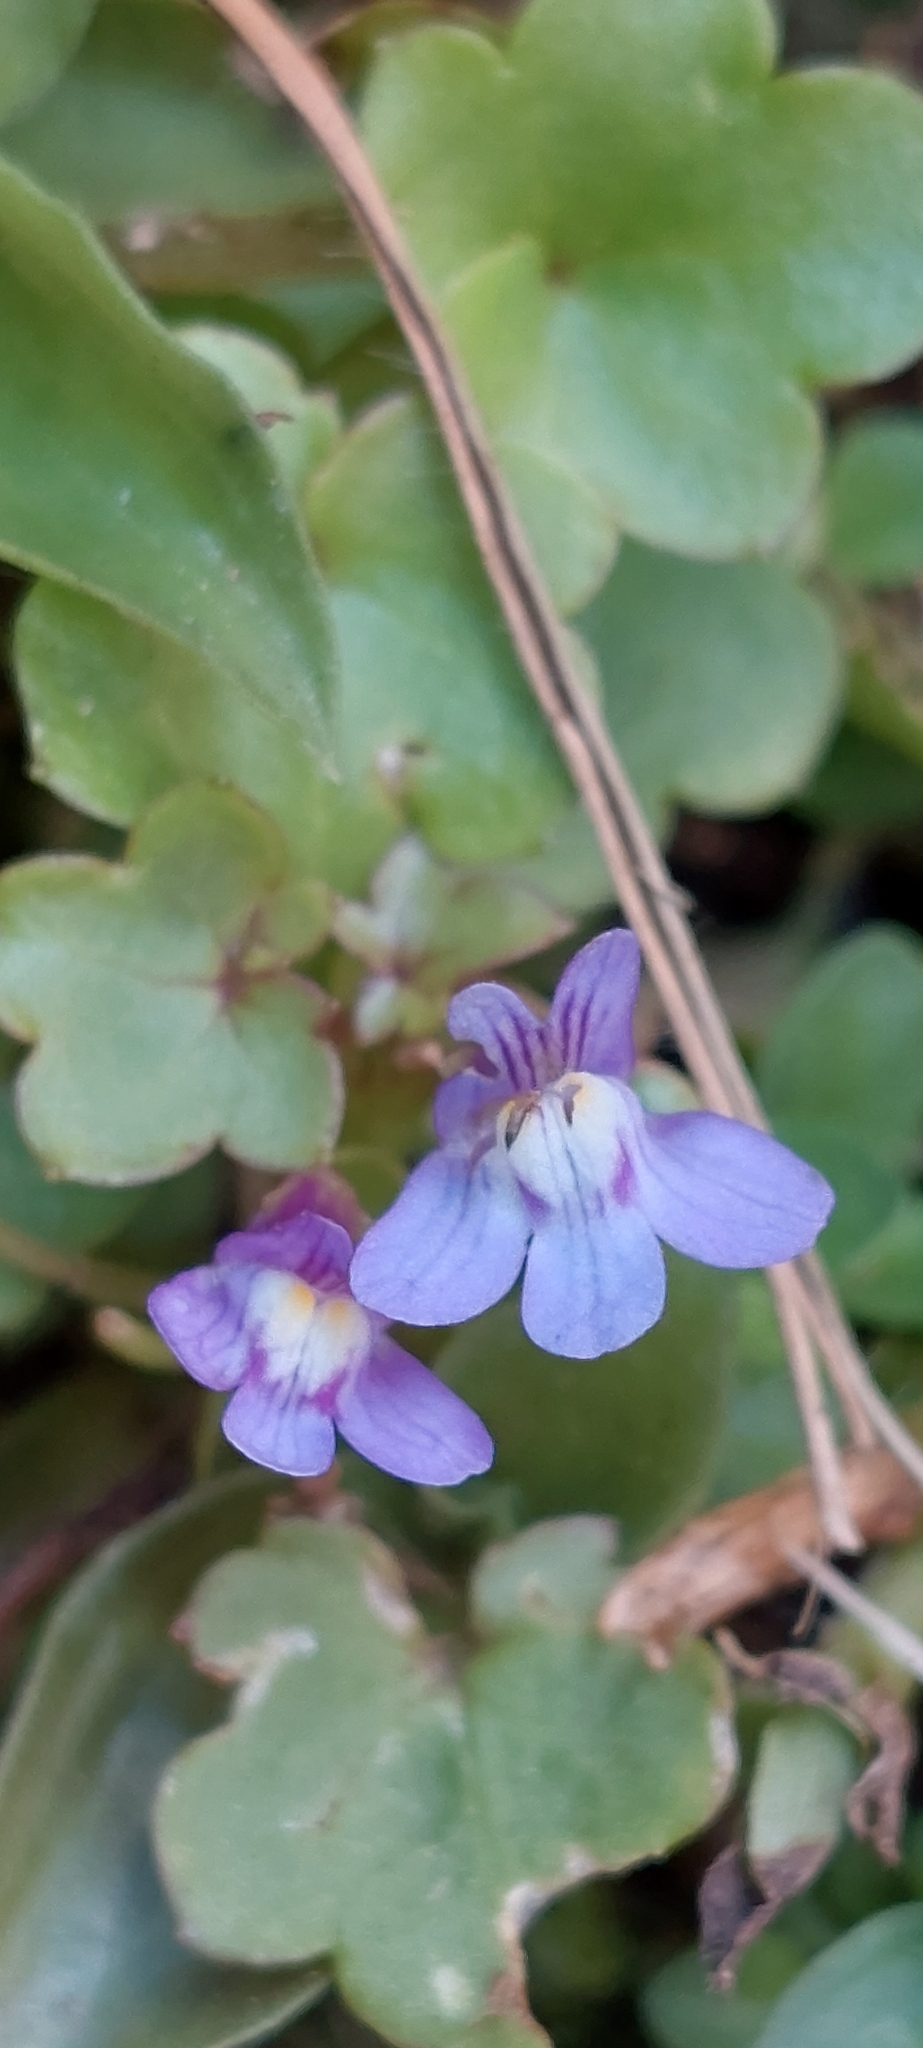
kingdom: Plantae
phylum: Tracheophyta
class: Magnoliopsida
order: Lamiales
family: Plantaginaceae
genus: Cymbalaria
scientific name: Cymbalaria muralis
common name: Ivy-leaved toadflax
